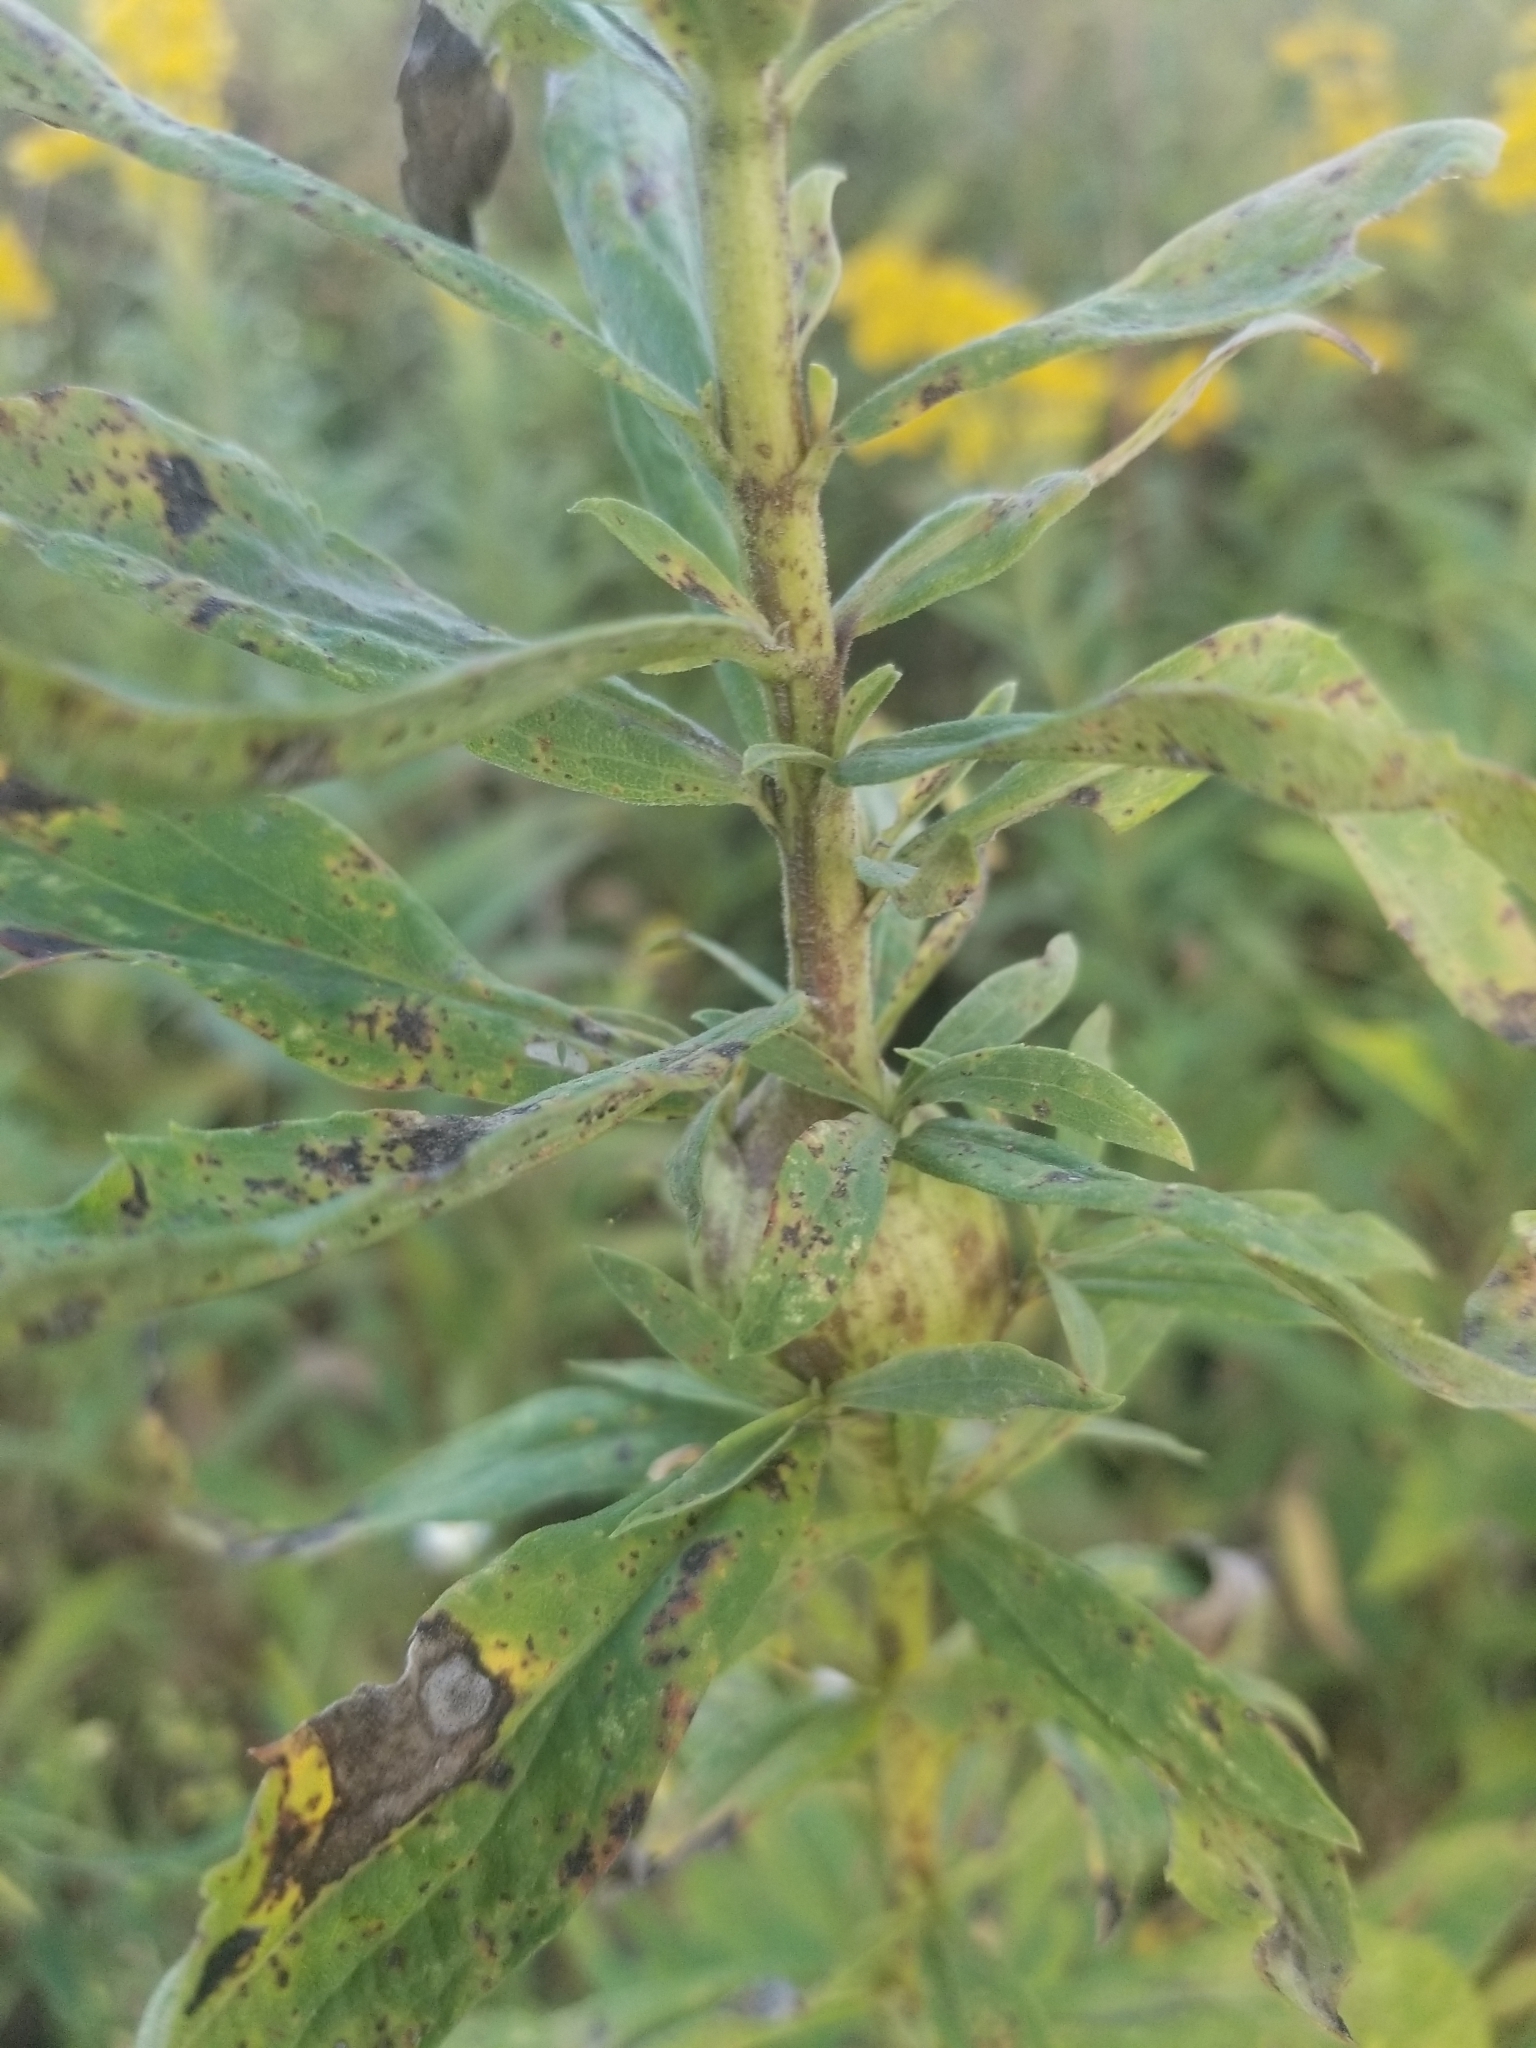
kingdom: Animalia
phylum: Arthropoda
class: Insecta
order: Diptera
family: Tephritidae
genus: Eurosta
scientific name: Eurosta solidaginis
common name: Goldenrod gall fly
